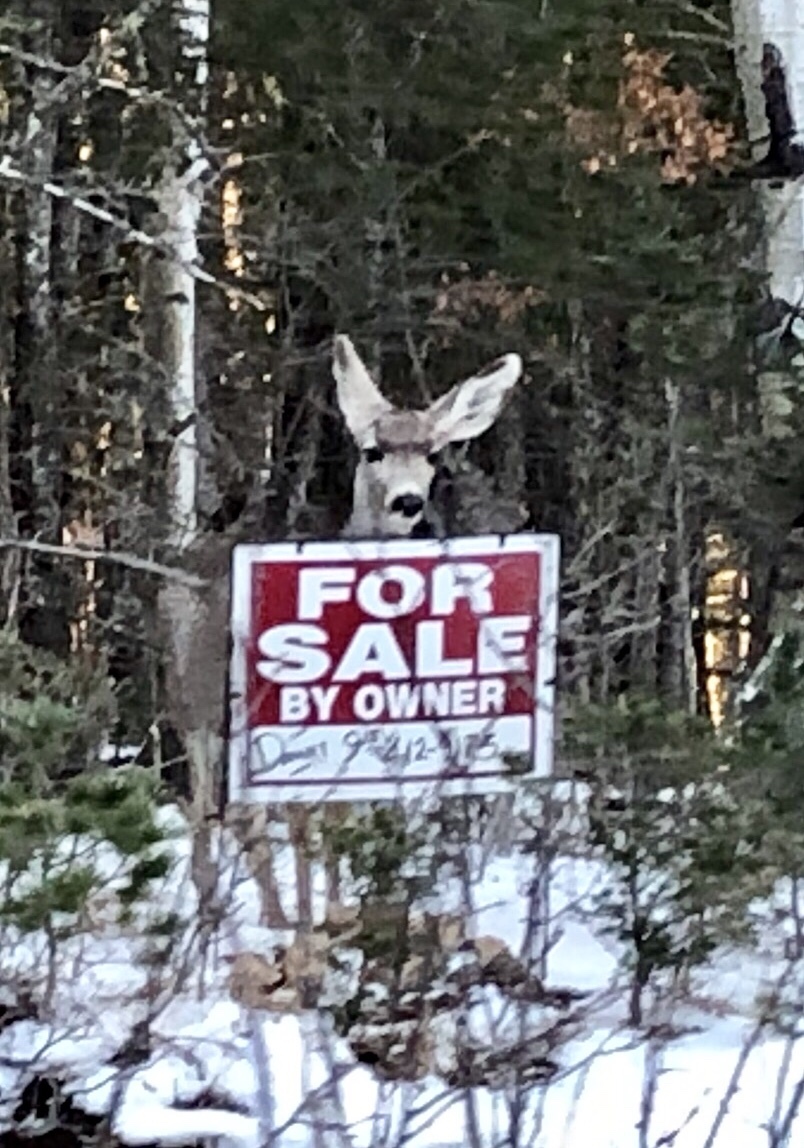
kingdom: Animalia
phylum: Chordata
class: Mammalia
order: Artiodactyla
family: Cervidae
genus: Odocoileus
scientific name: Odocoileus hemionus
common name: Mule deer
